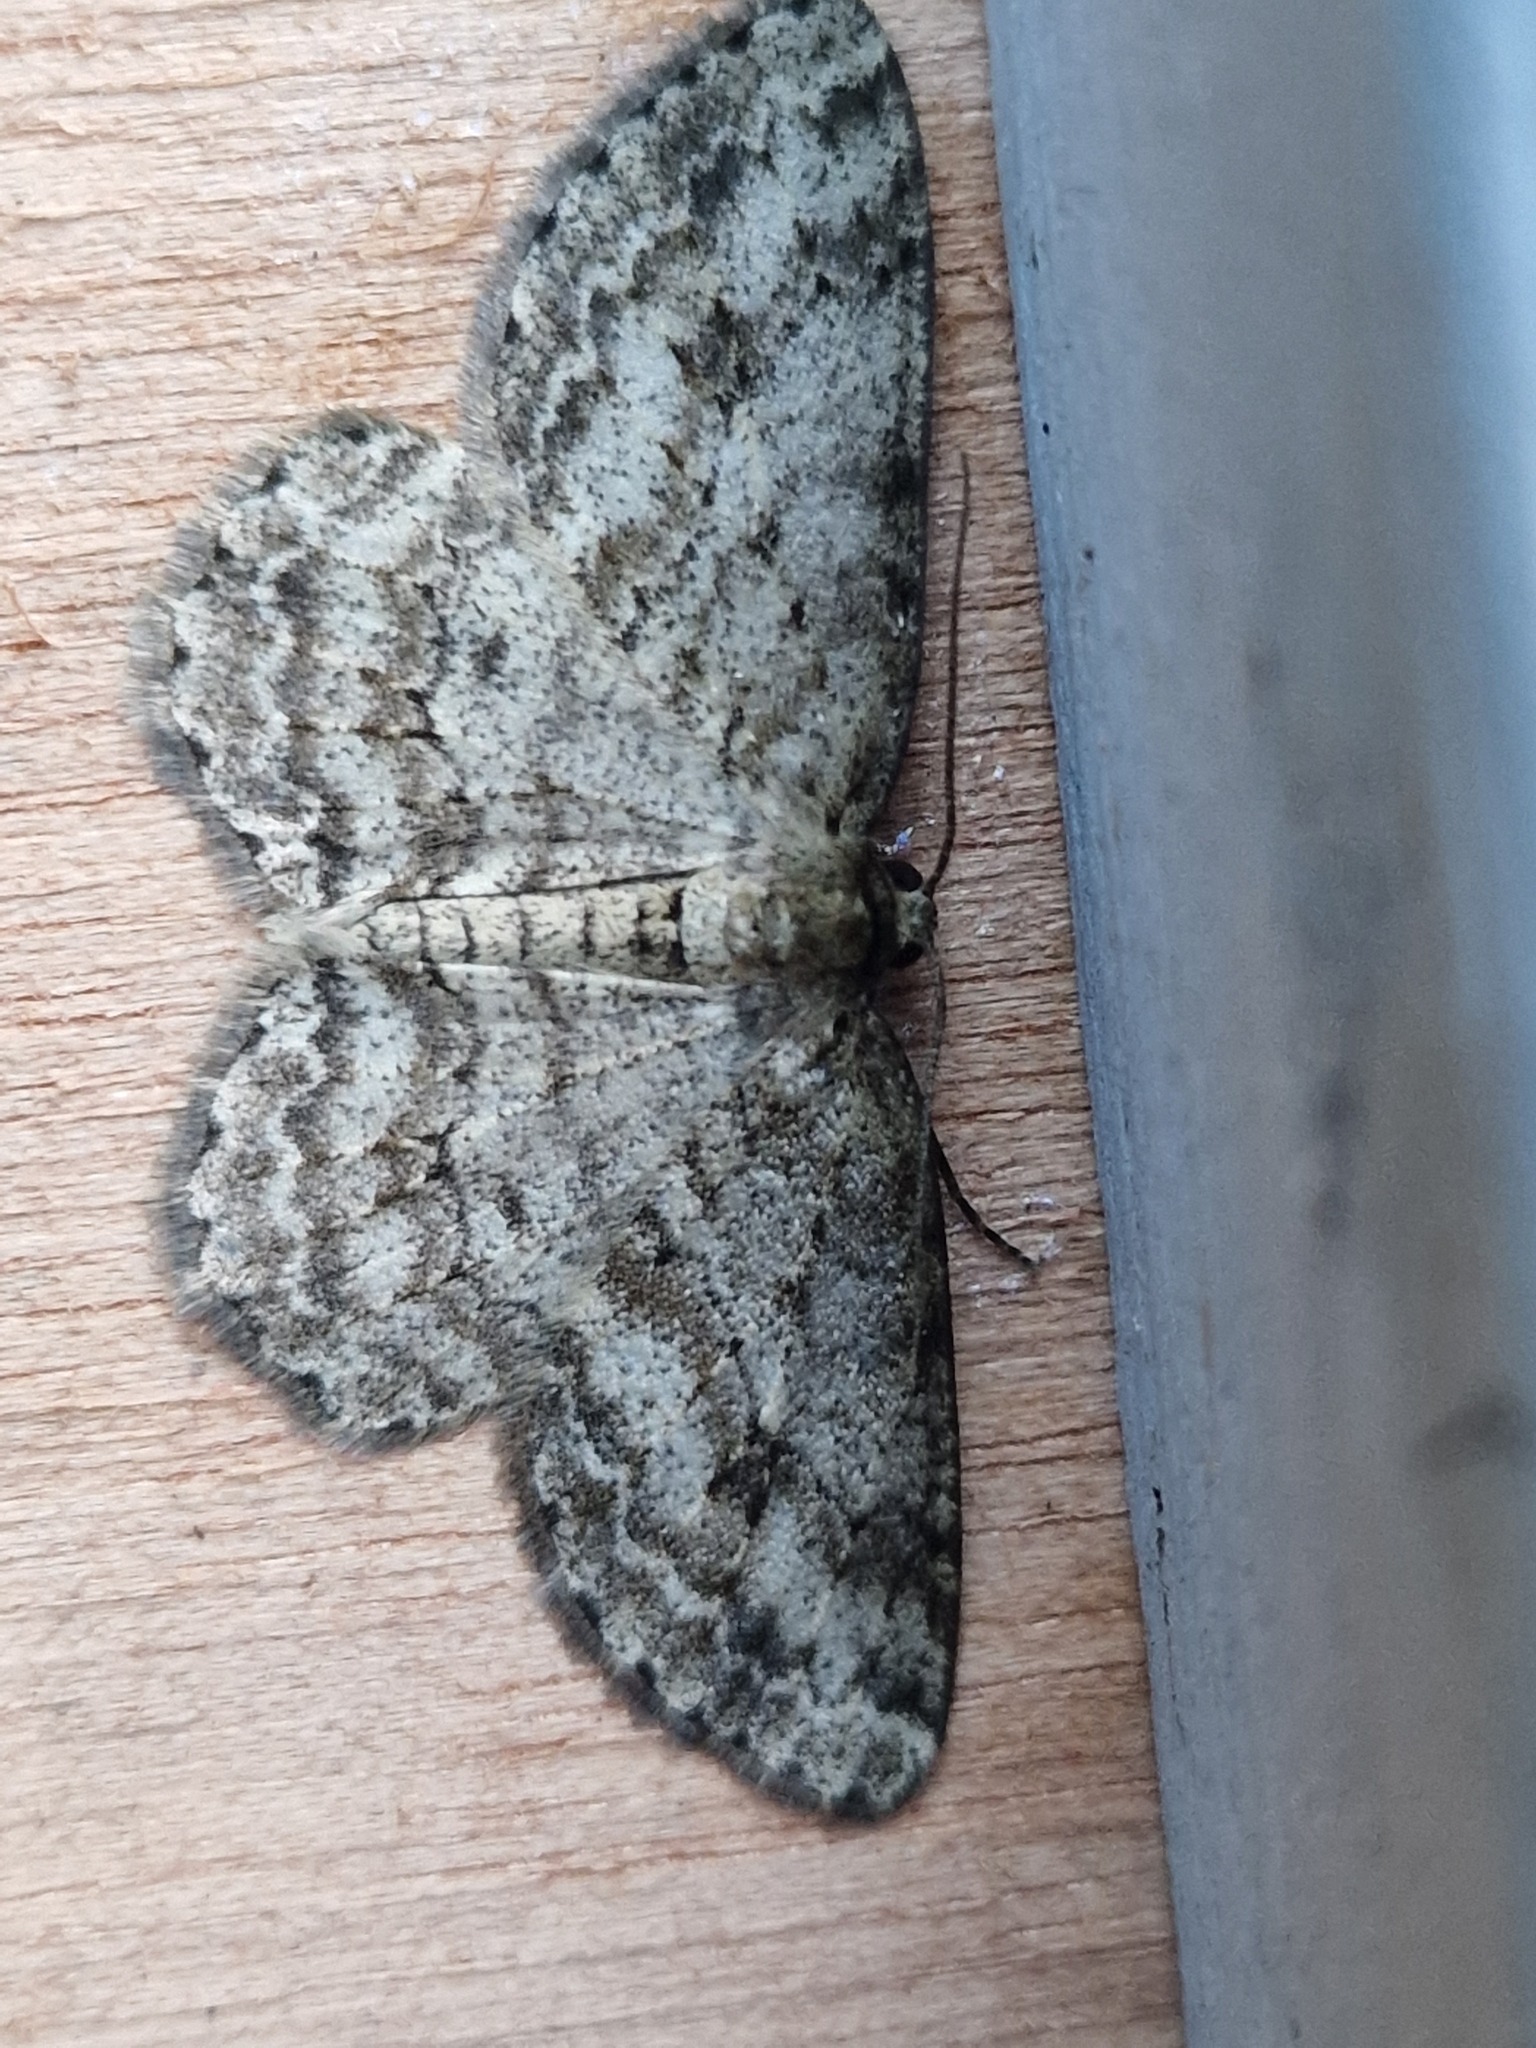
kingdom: Animalia
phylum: Arthropoda
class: Insecta
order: Lepidoptera
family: Geometridae
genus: Ectropis
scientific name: Ectropis crepuscularia
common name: Engrailed
